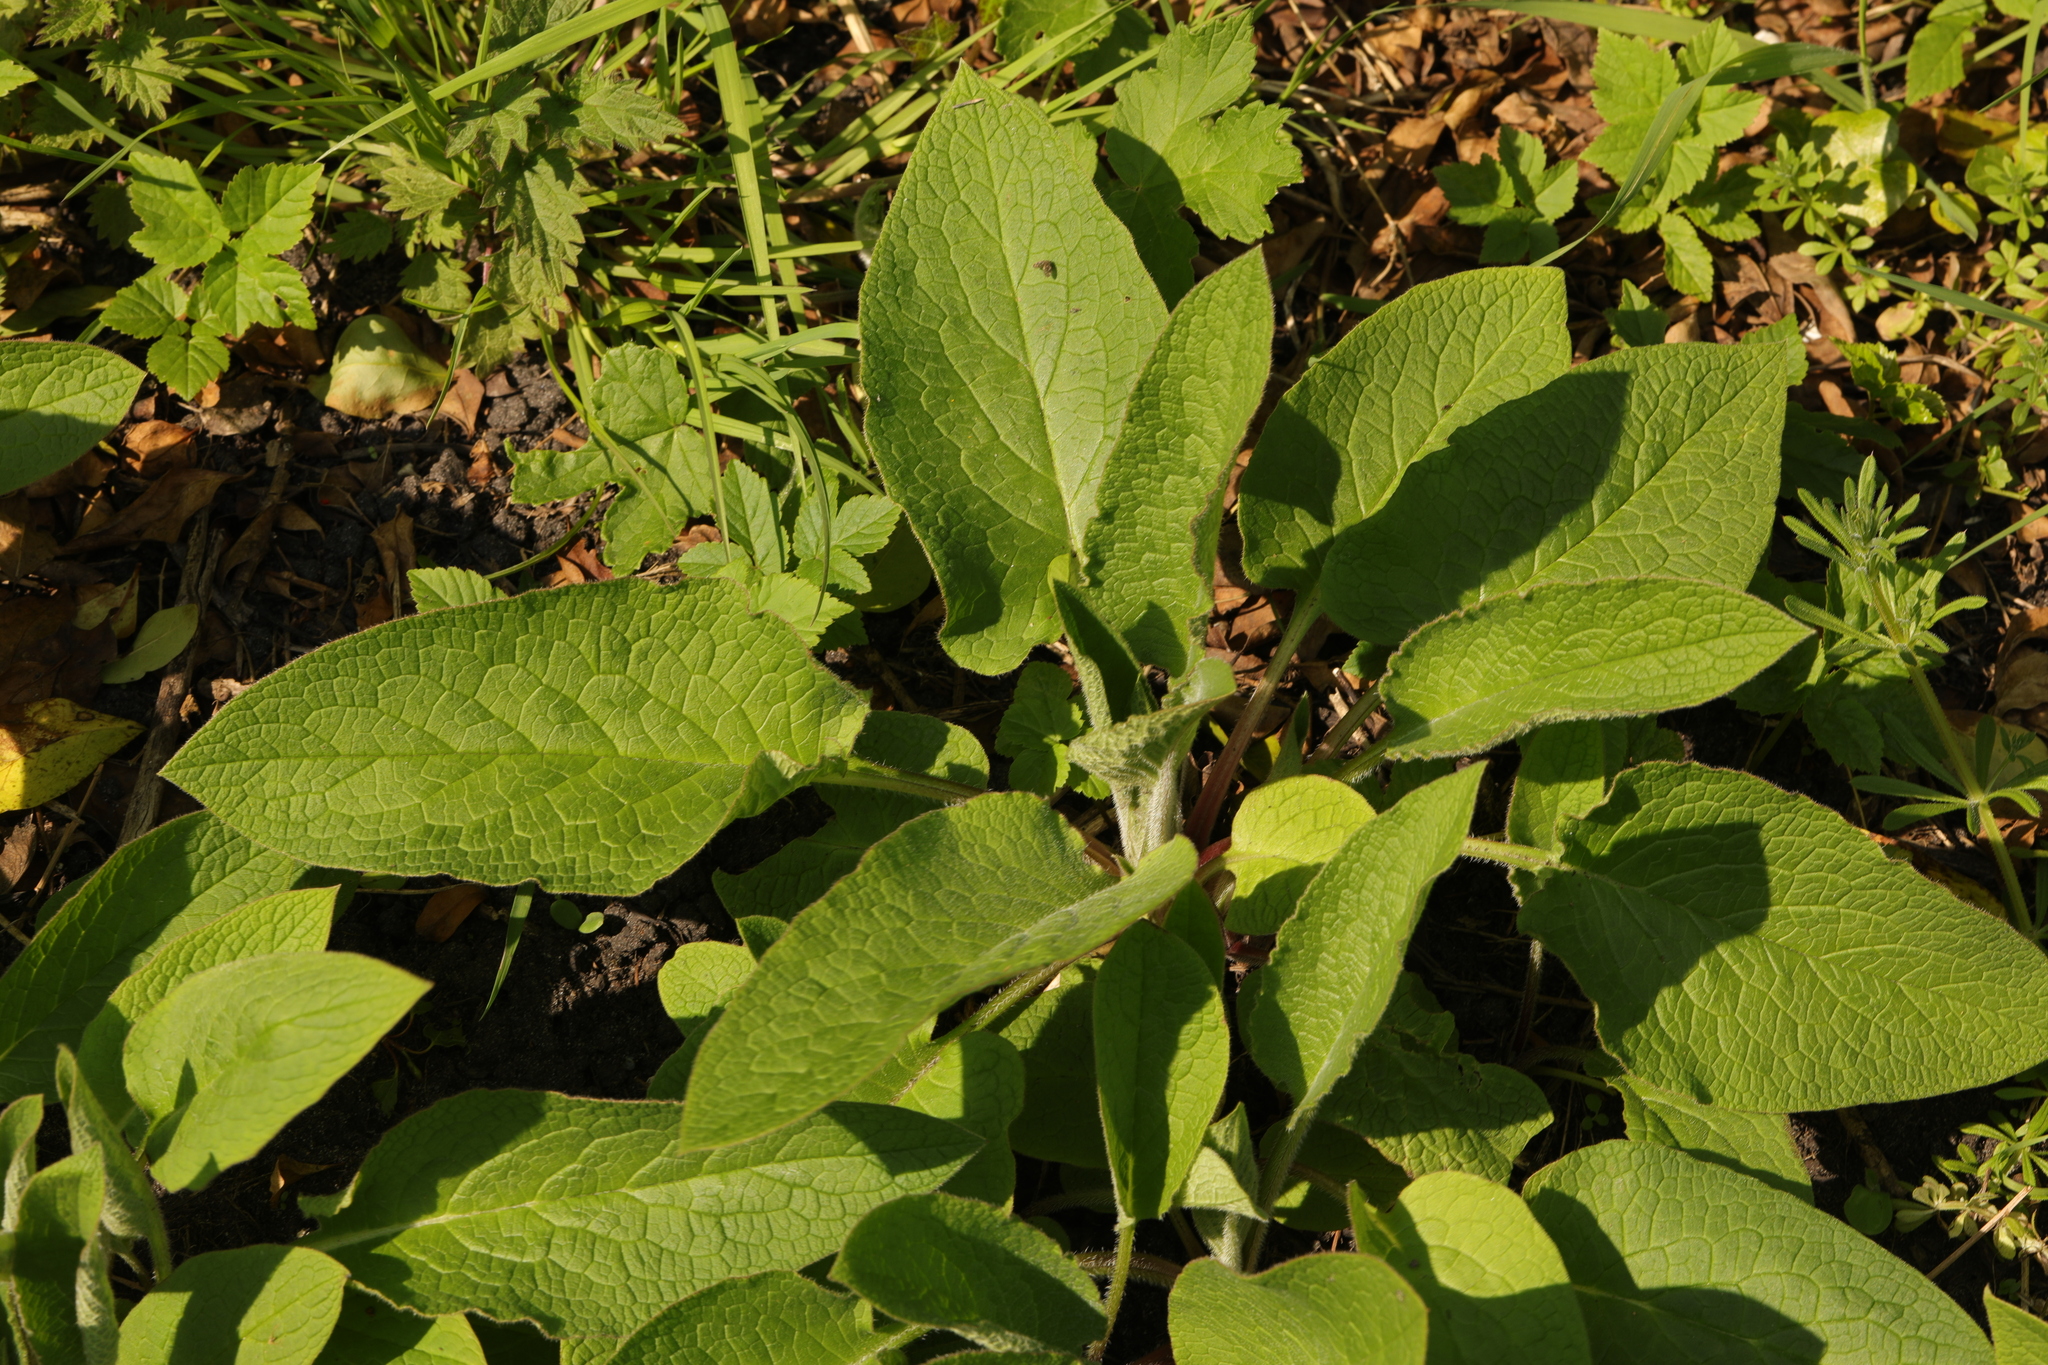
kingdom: Plantae
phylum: Tracheophyta
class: Magnoliopsida
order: Lamiales
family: Plantaginaceae
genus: Digitalis
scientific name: Digitalis purpurea
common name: Foxglove
